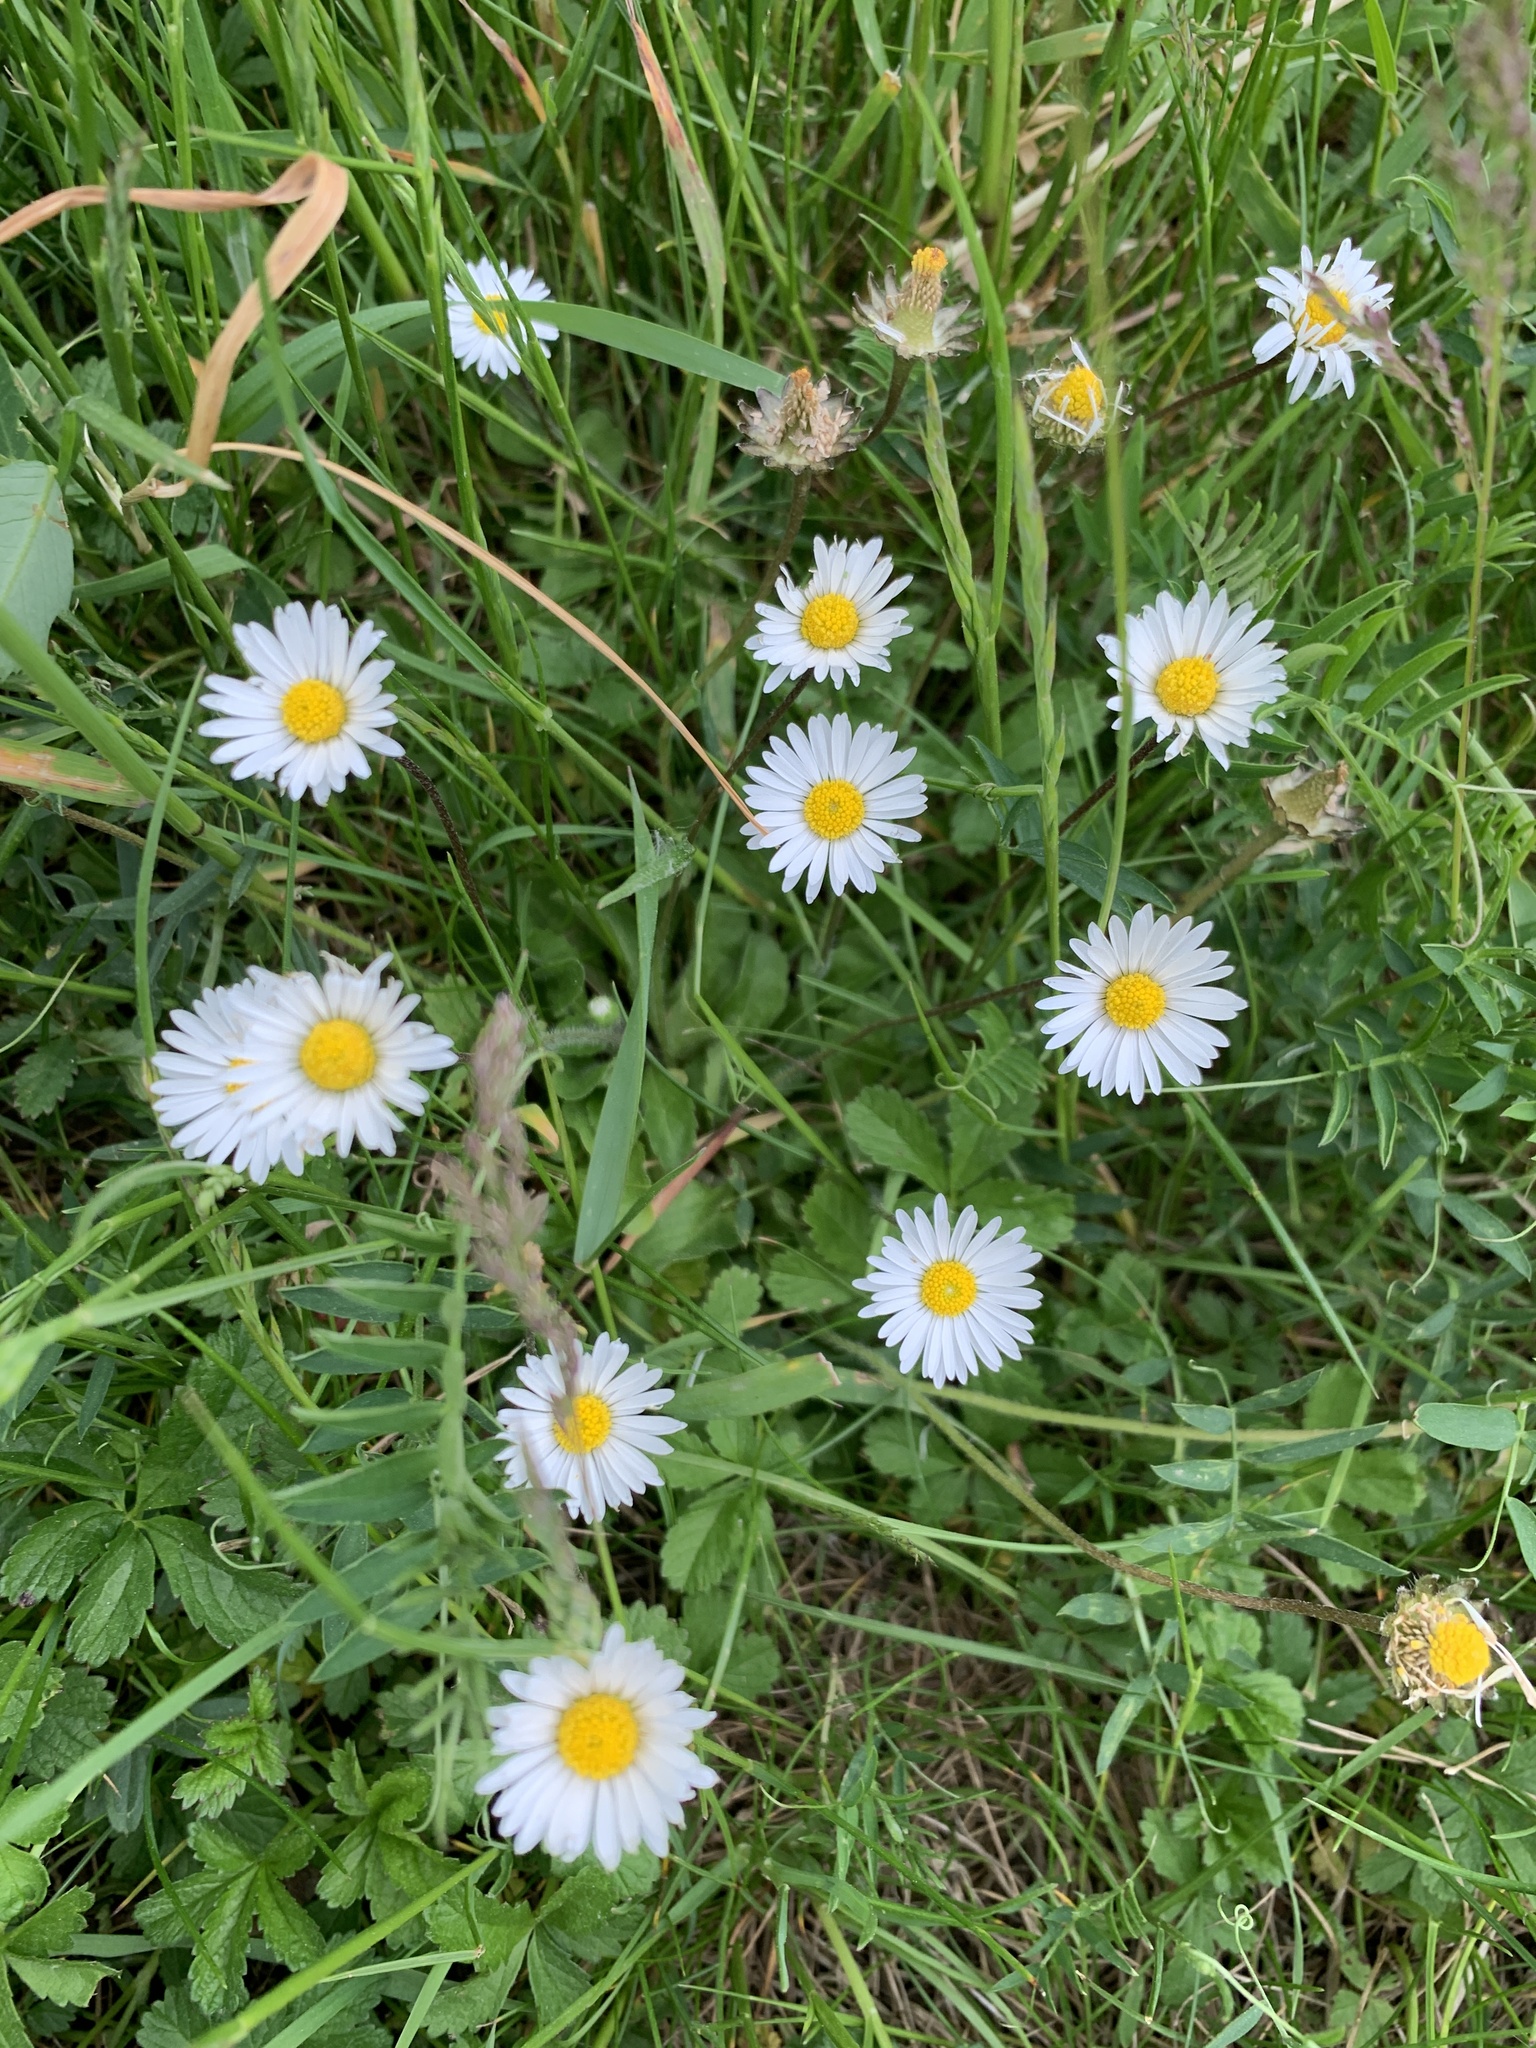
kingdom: Plantae
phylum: Tracheophyta
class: Magnoliopsida
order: Asterales
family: Asteraceae
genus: Bellis
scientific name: Bellis perennis
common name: Lawndaisy
